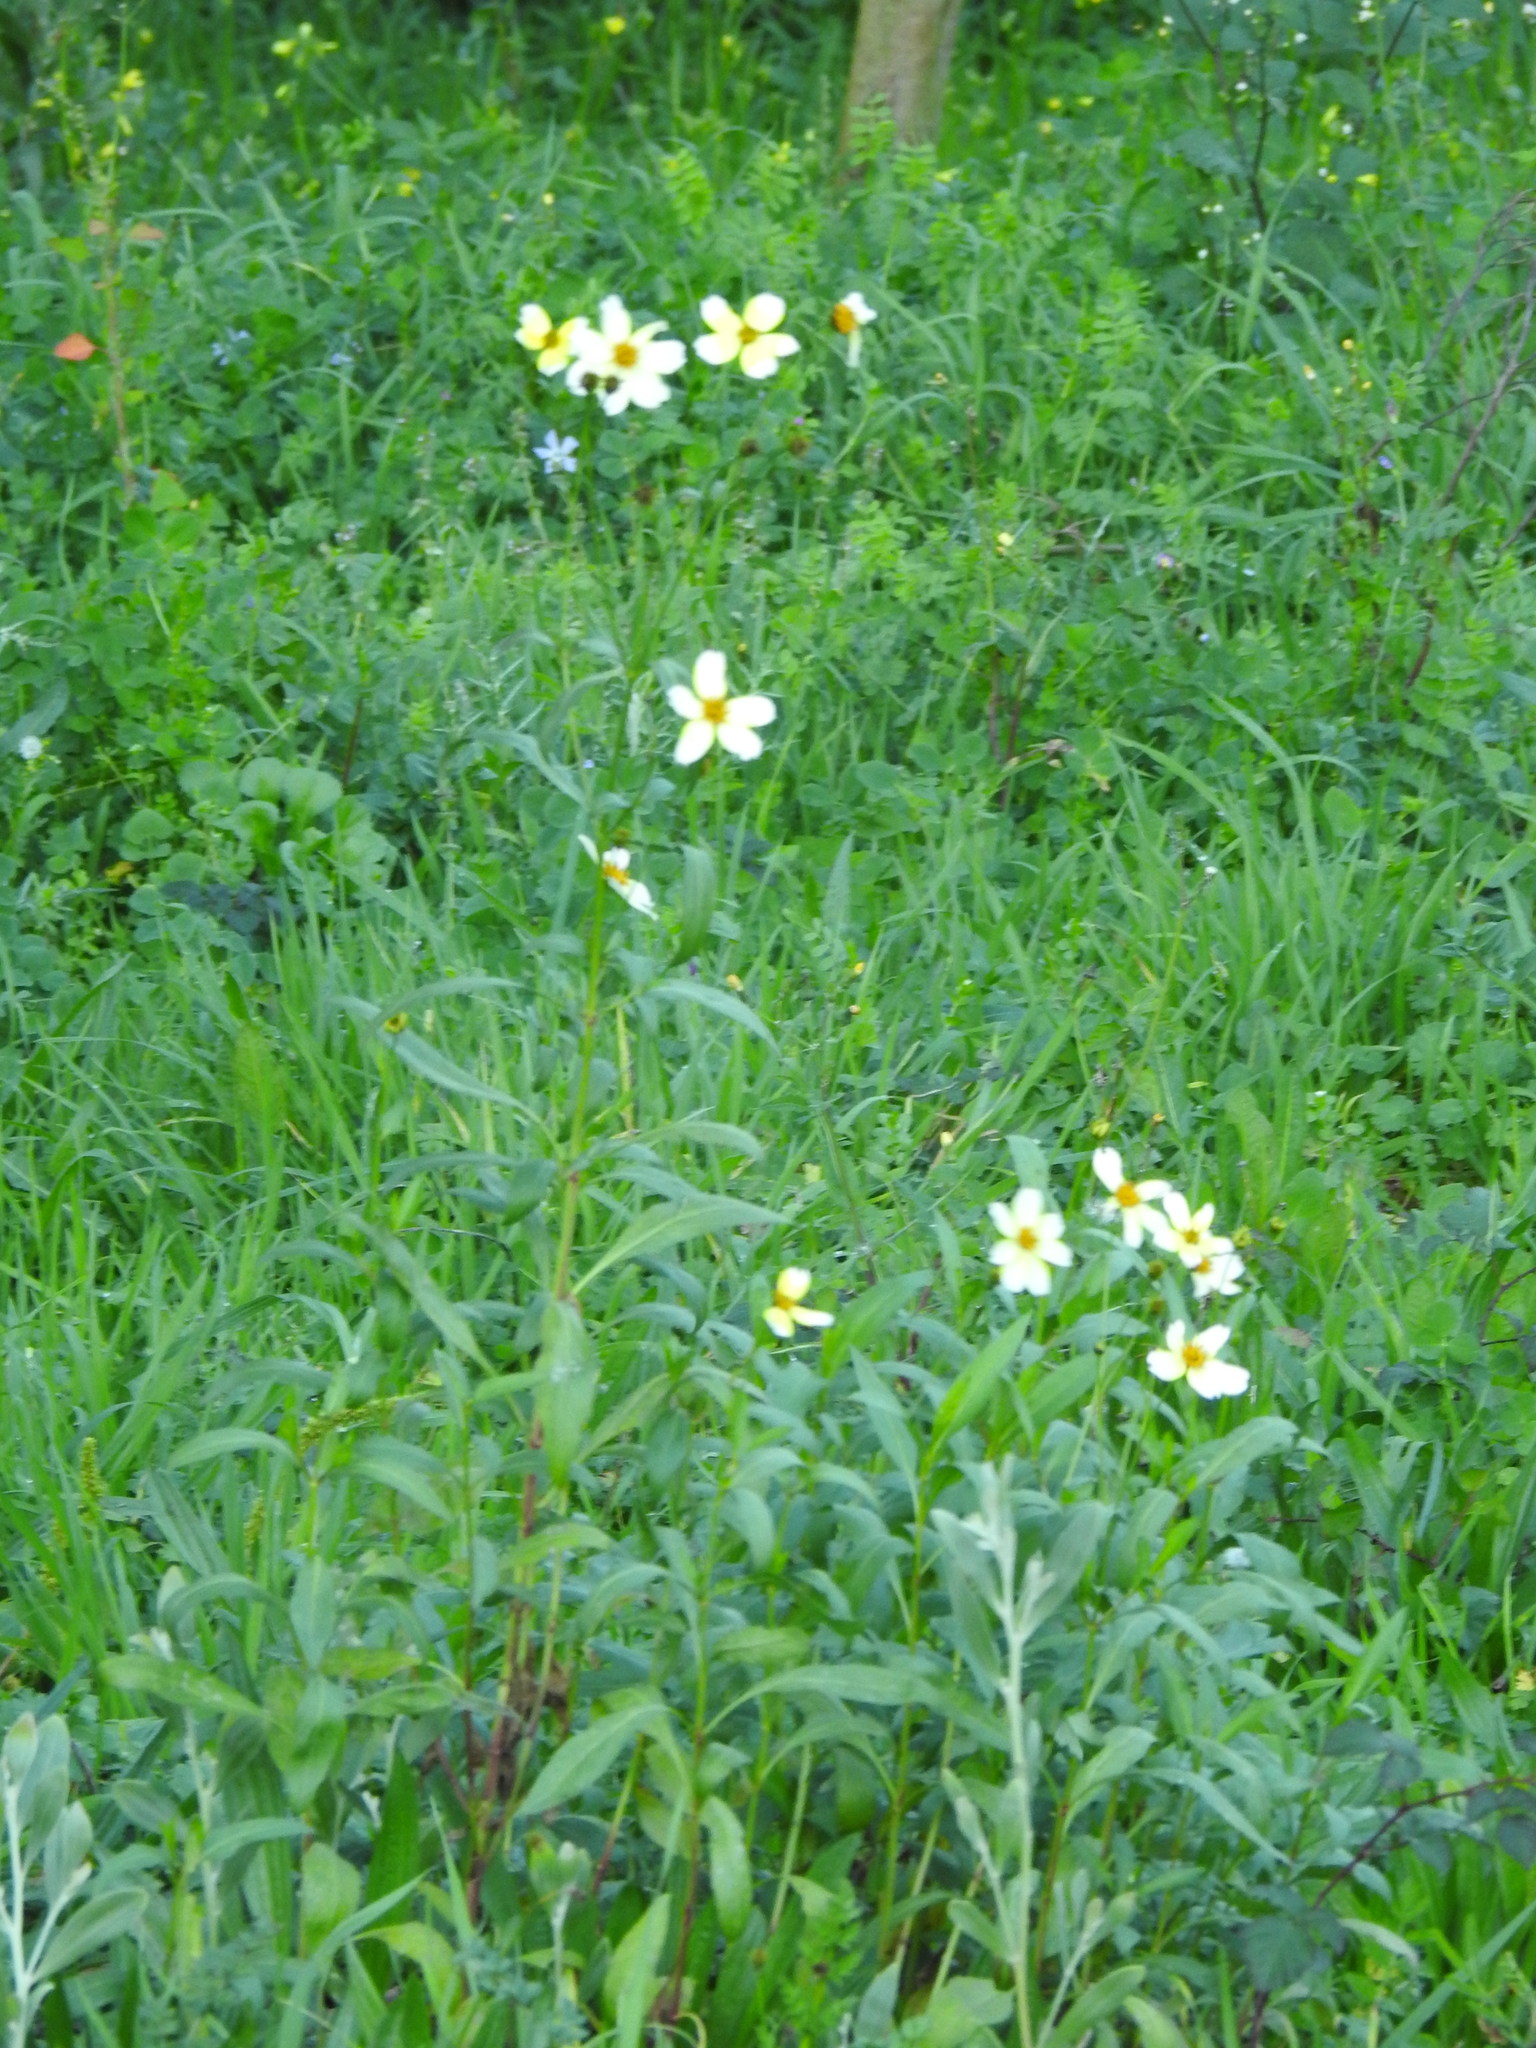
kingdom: Plantae
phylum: Tracheophyta
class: Magnoliopsida
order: Asterales
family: Asteraceae
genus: Bidens
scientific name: Bidens aurea
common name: Arizona beggar-ticks
